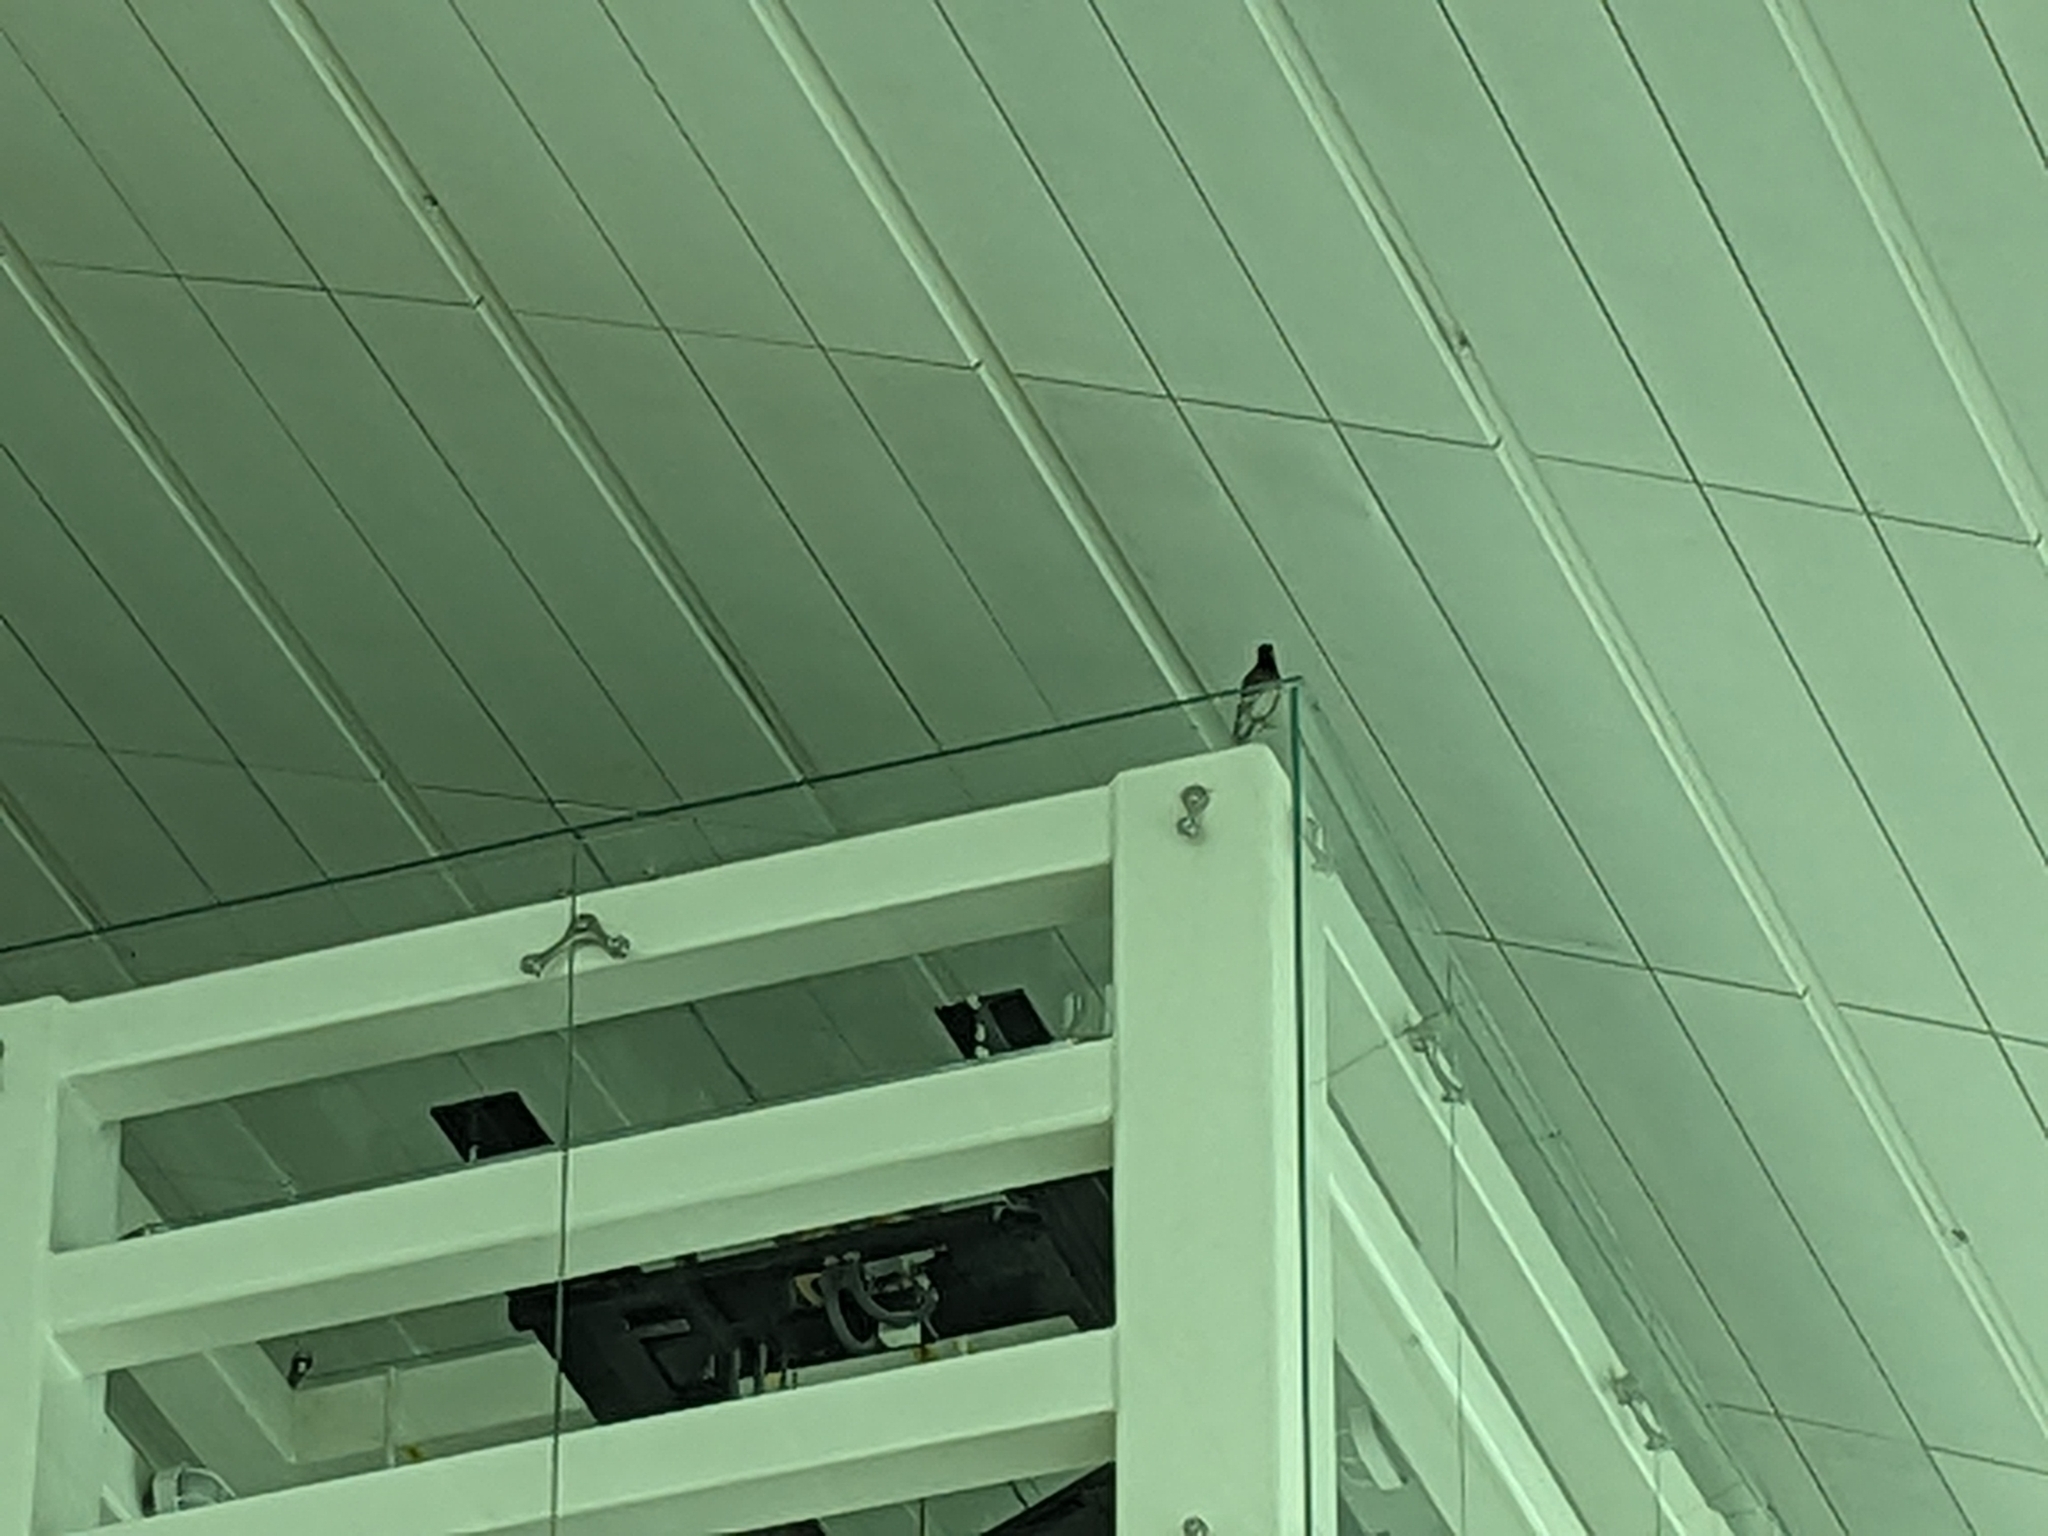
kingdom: Animalia
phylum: Chordata
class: Aves
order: Passeriformes
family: Sturnidae
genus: Acridotheres
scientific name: Acridotheres tristis
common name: Common myna
